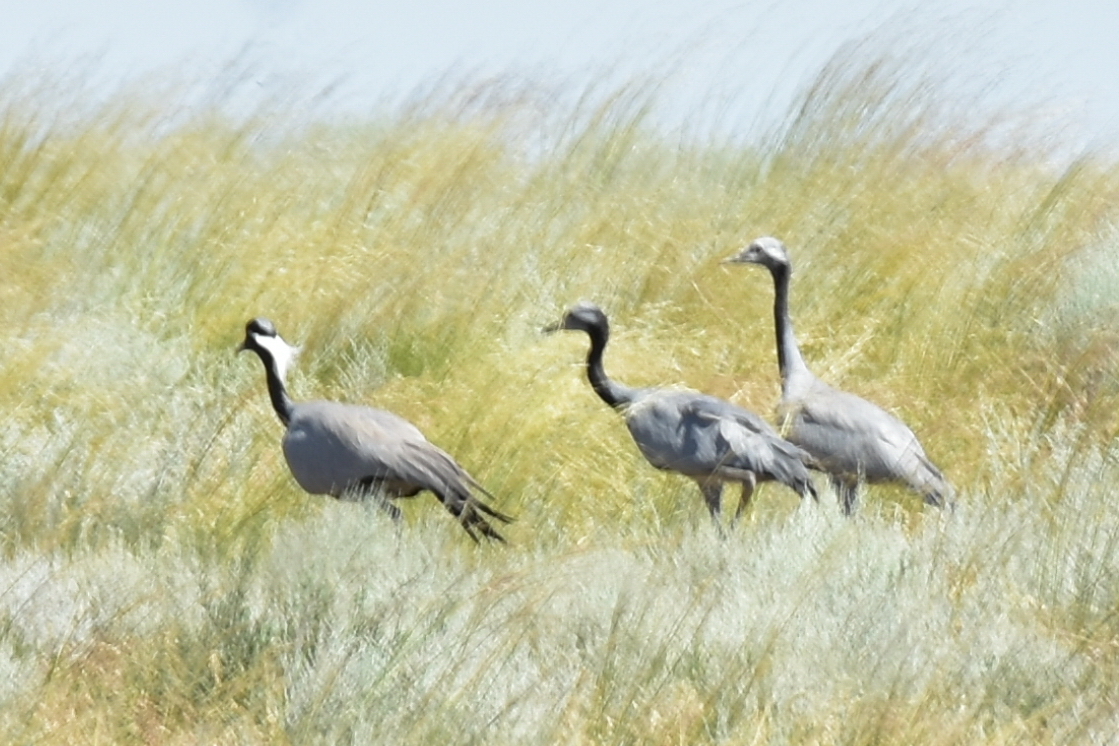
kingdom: Animalia
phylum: Chordata
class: Aves
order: Gruiformes
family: Gruidae
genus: Anthropoides
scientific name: Anthropoides virgo
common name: Demoiselle crane
